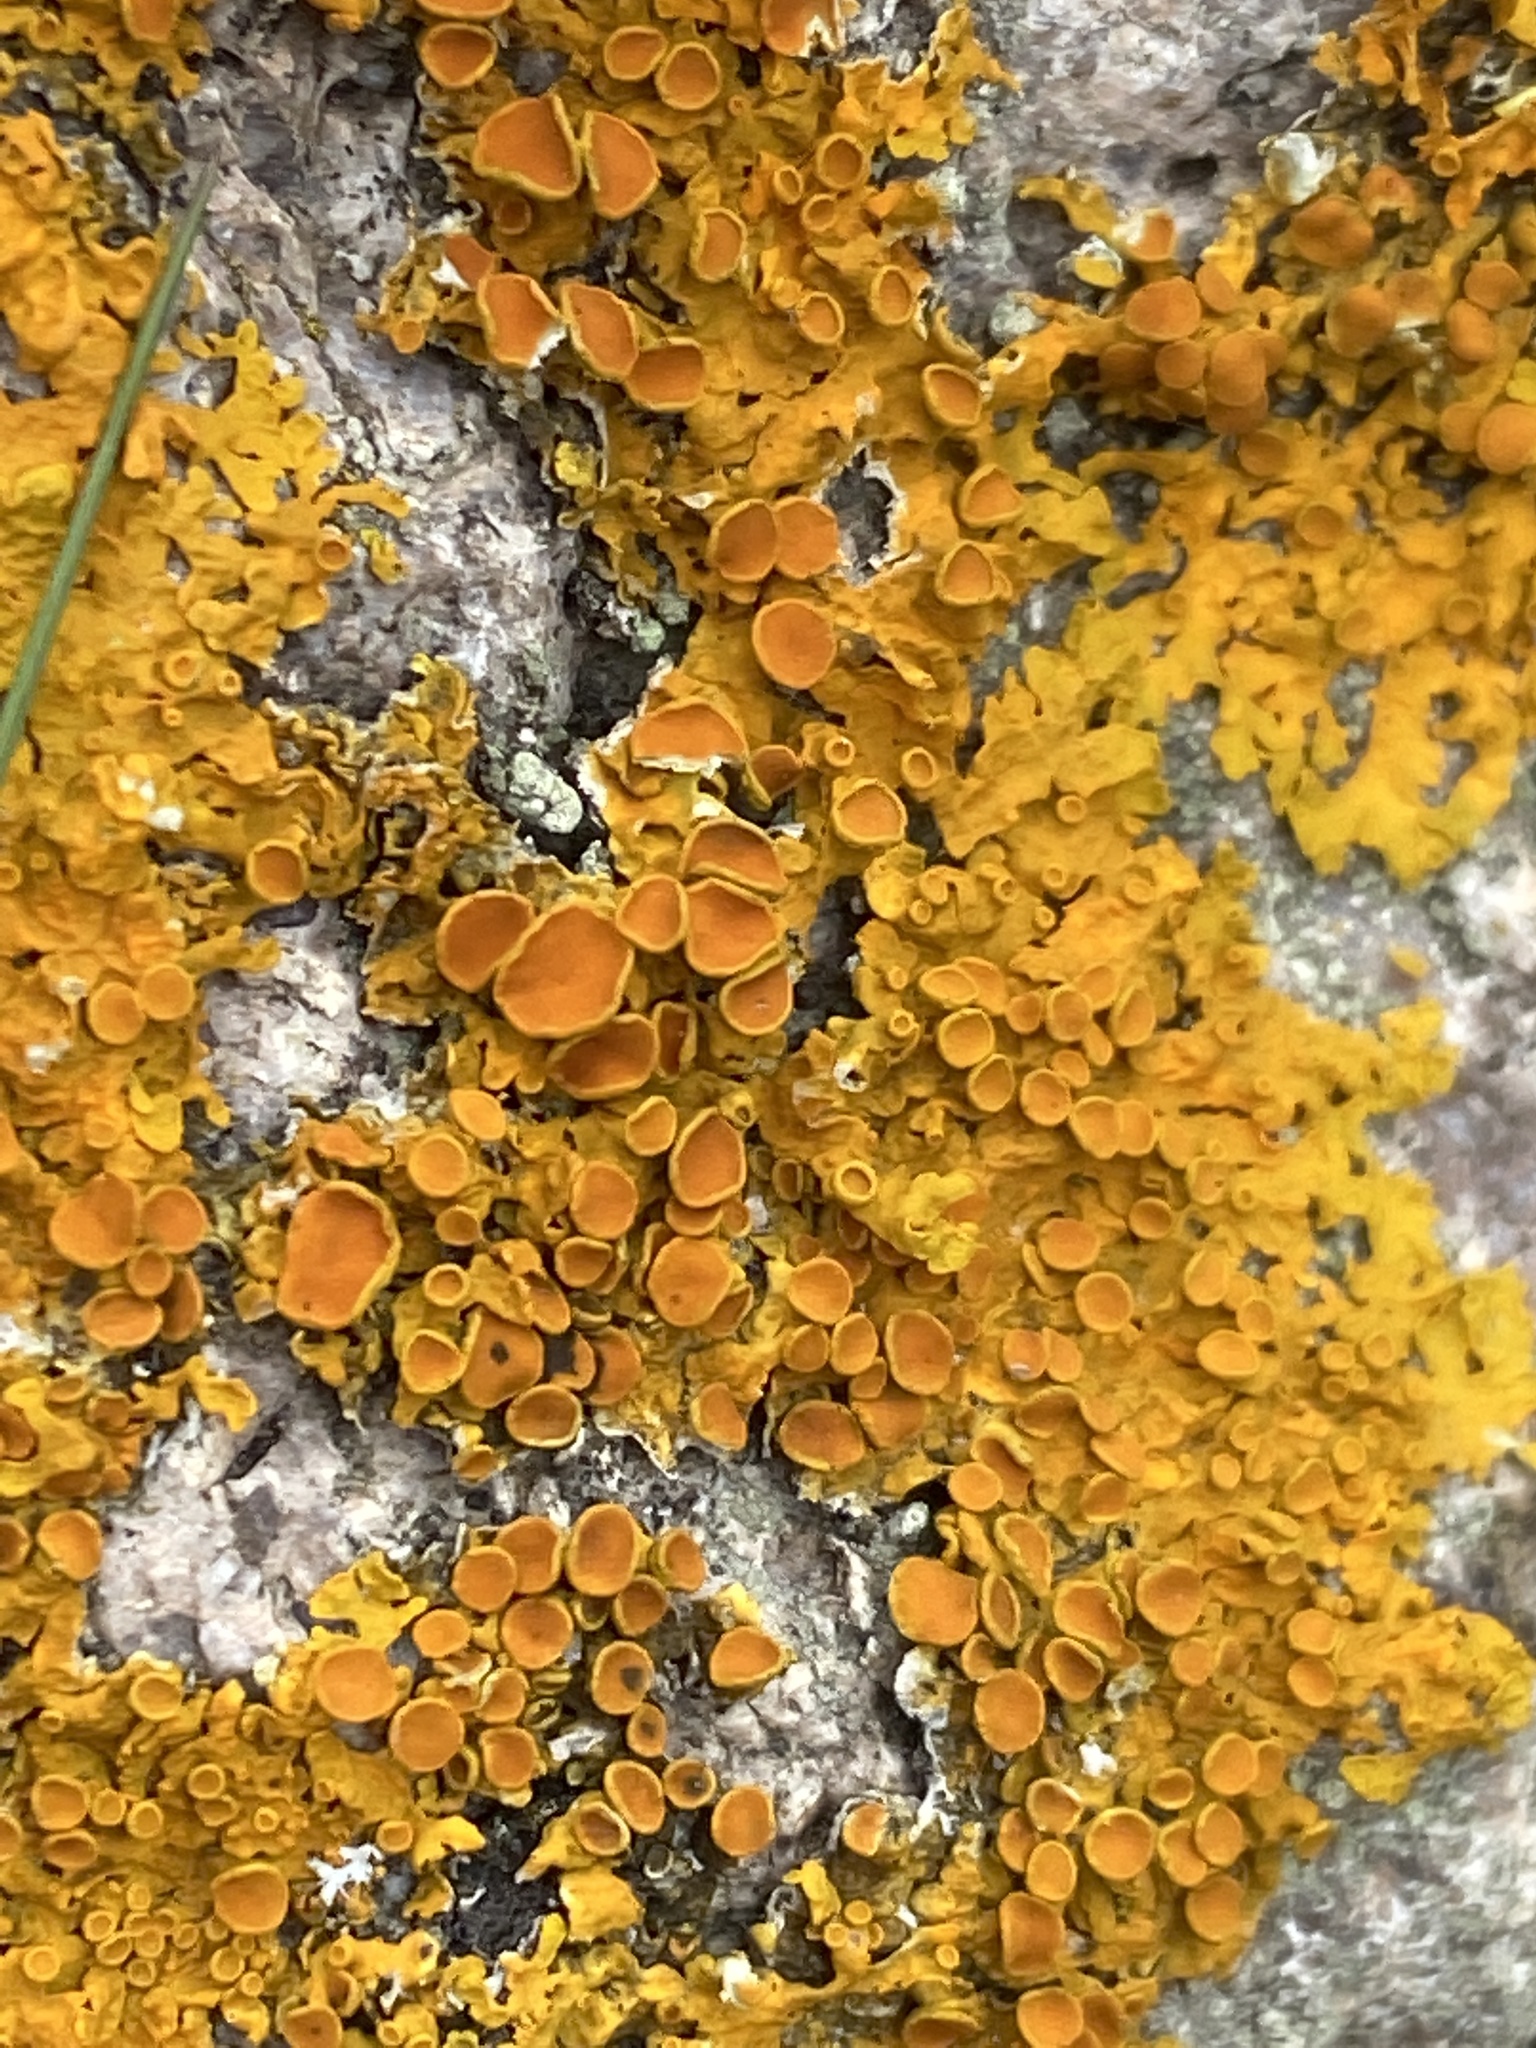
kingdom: Fungi
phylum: Ascomycota
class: Lecanoromycetes
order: Teloschistales
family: Teloschistaceae
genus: Xanthoria
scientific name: Xanthoria parietina
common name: Common orange lichen
